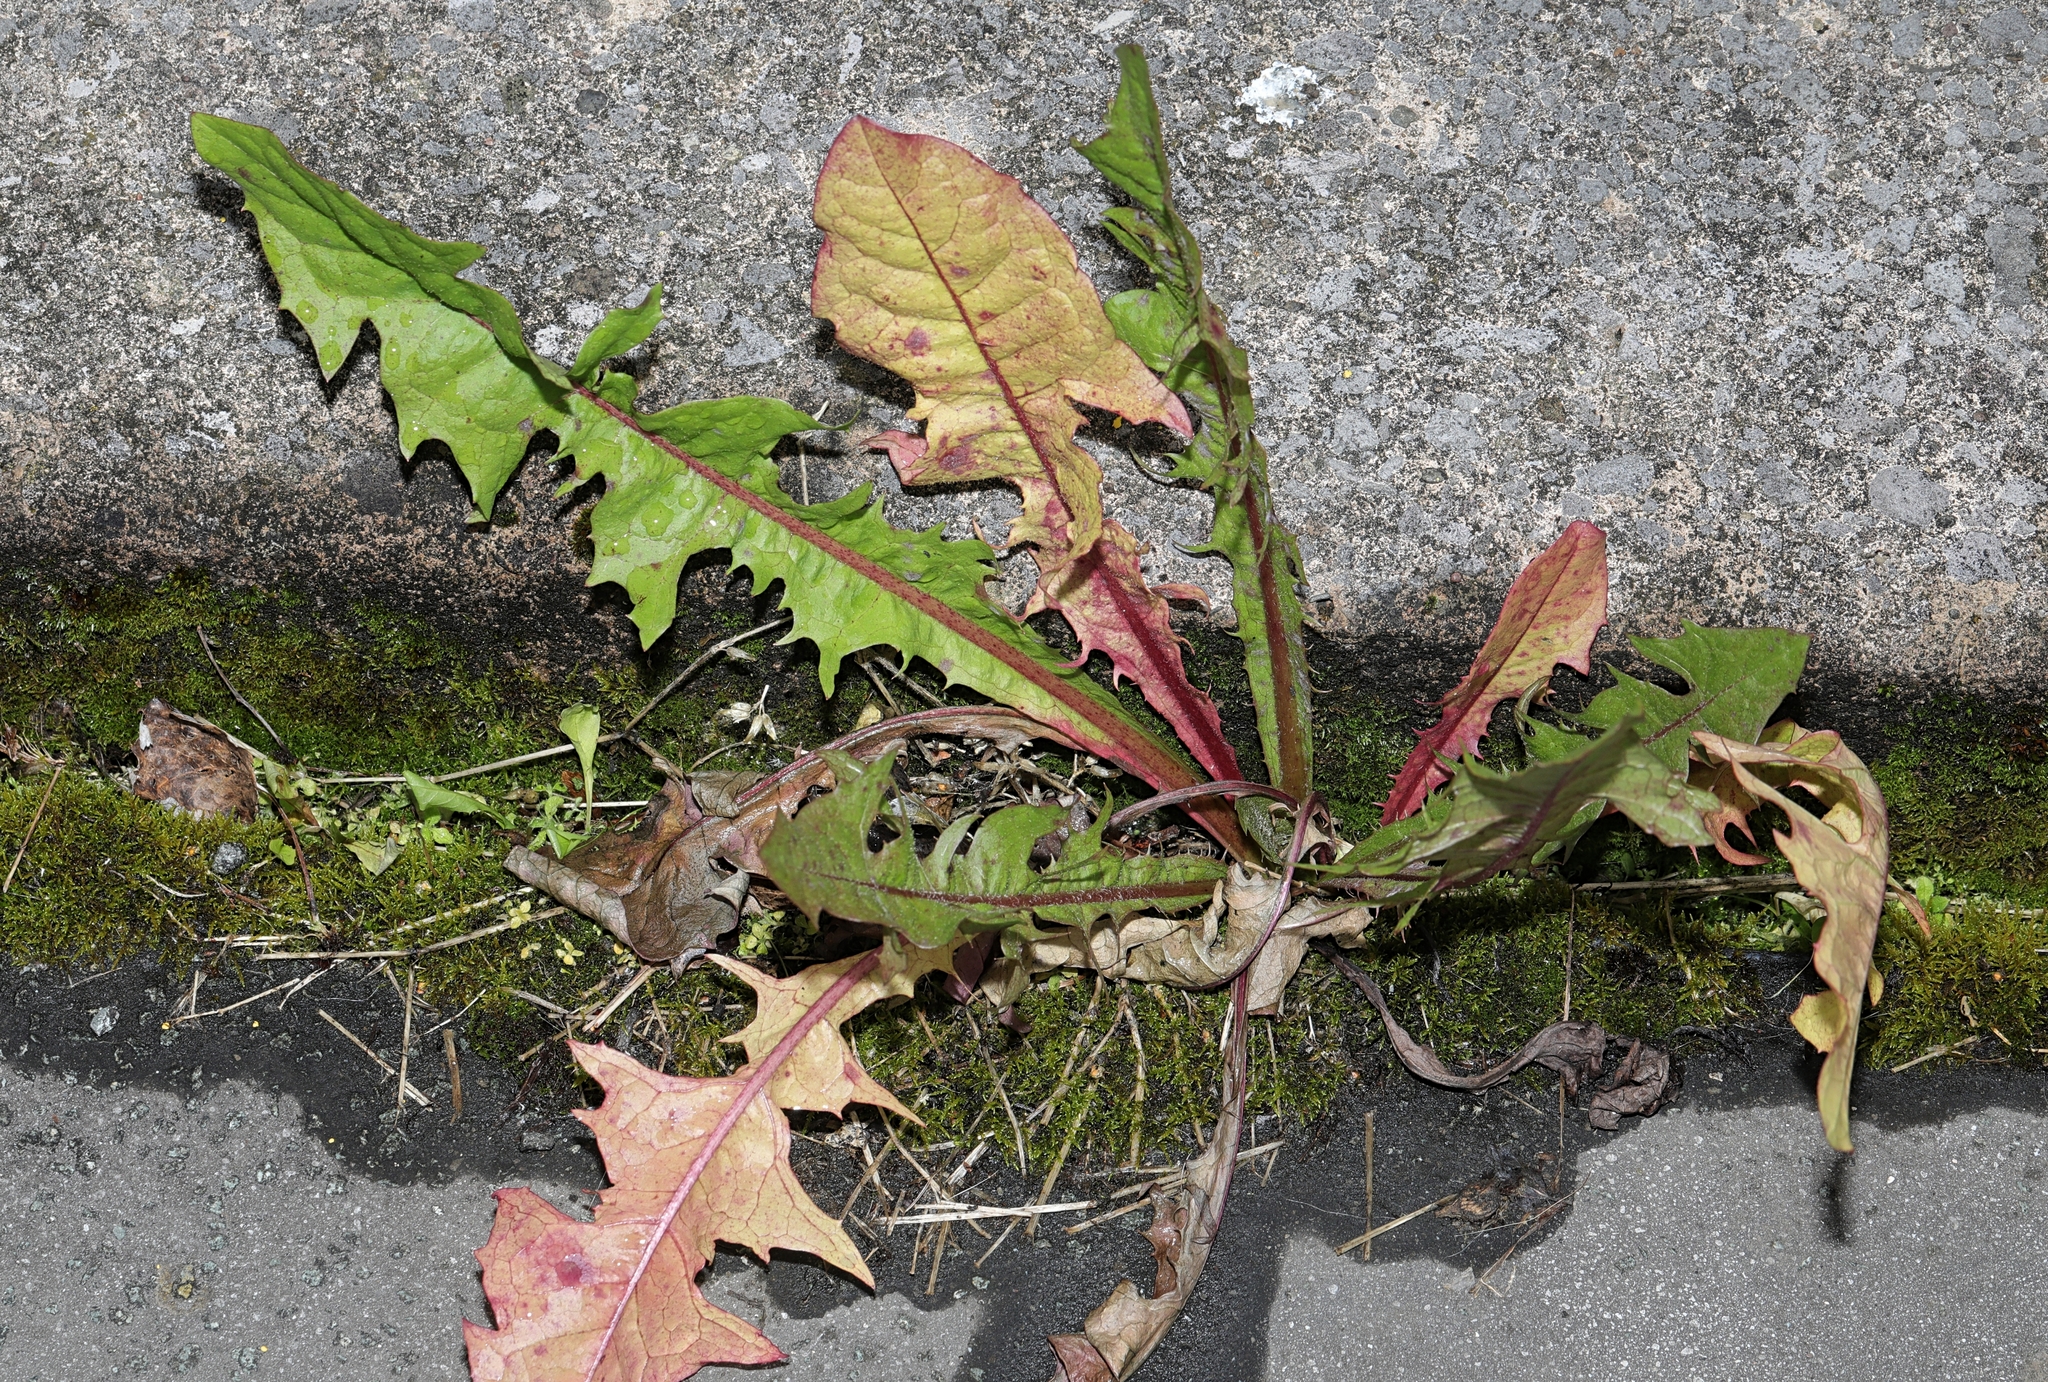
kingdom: Plantae
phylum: Tracheophyta
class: Magnoliopsida
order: Asterales
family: Asteraceae
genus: Taraxacum
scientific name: Taraxacum officinale
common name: Common dandelion
